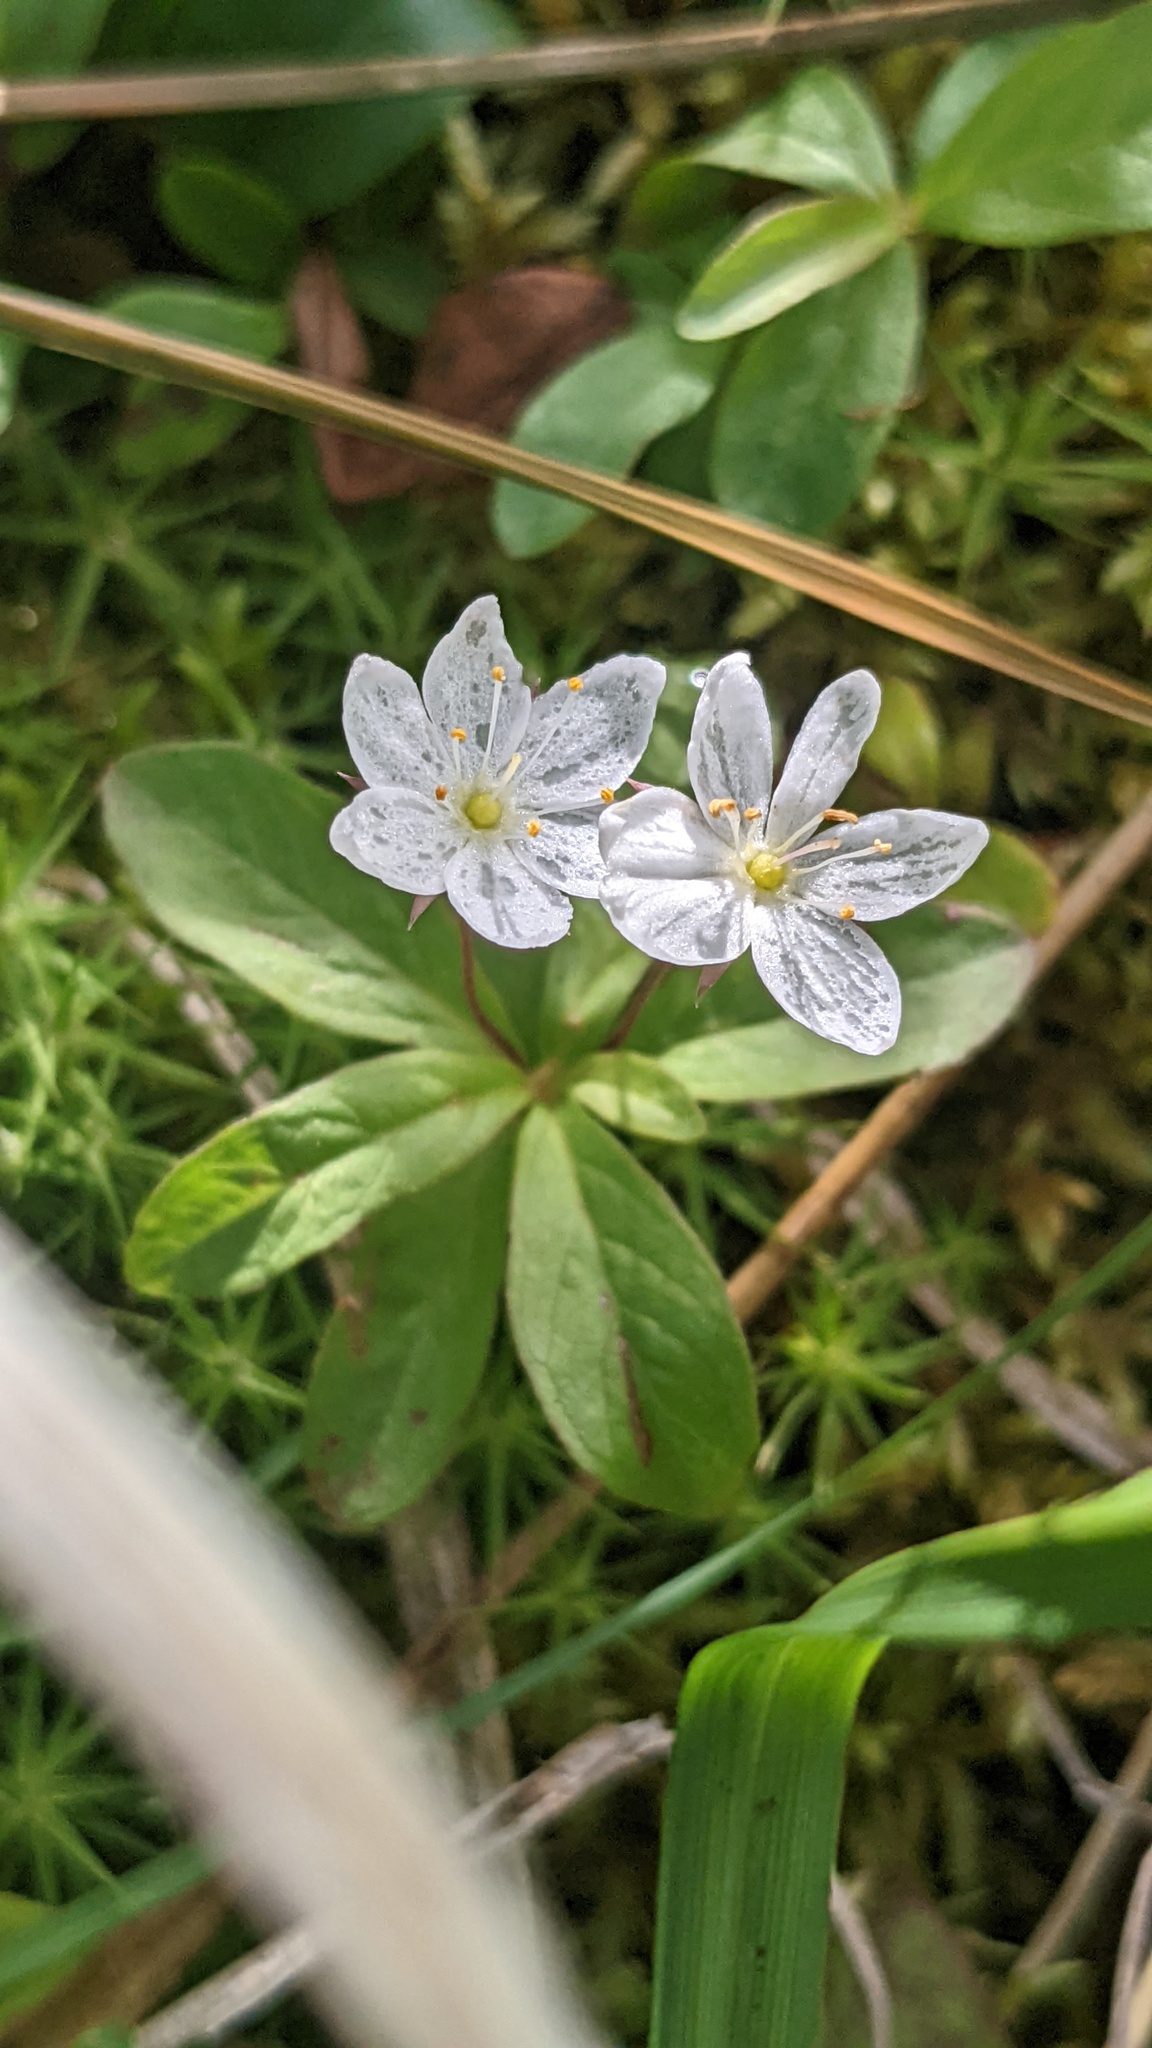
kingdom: Plantae
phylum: Tracheophyta
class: Magnoliopsida
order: Ericales
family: Primulaceae
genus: Lysimachia
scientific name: Lysimachia europaea
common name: Arctic starflower
